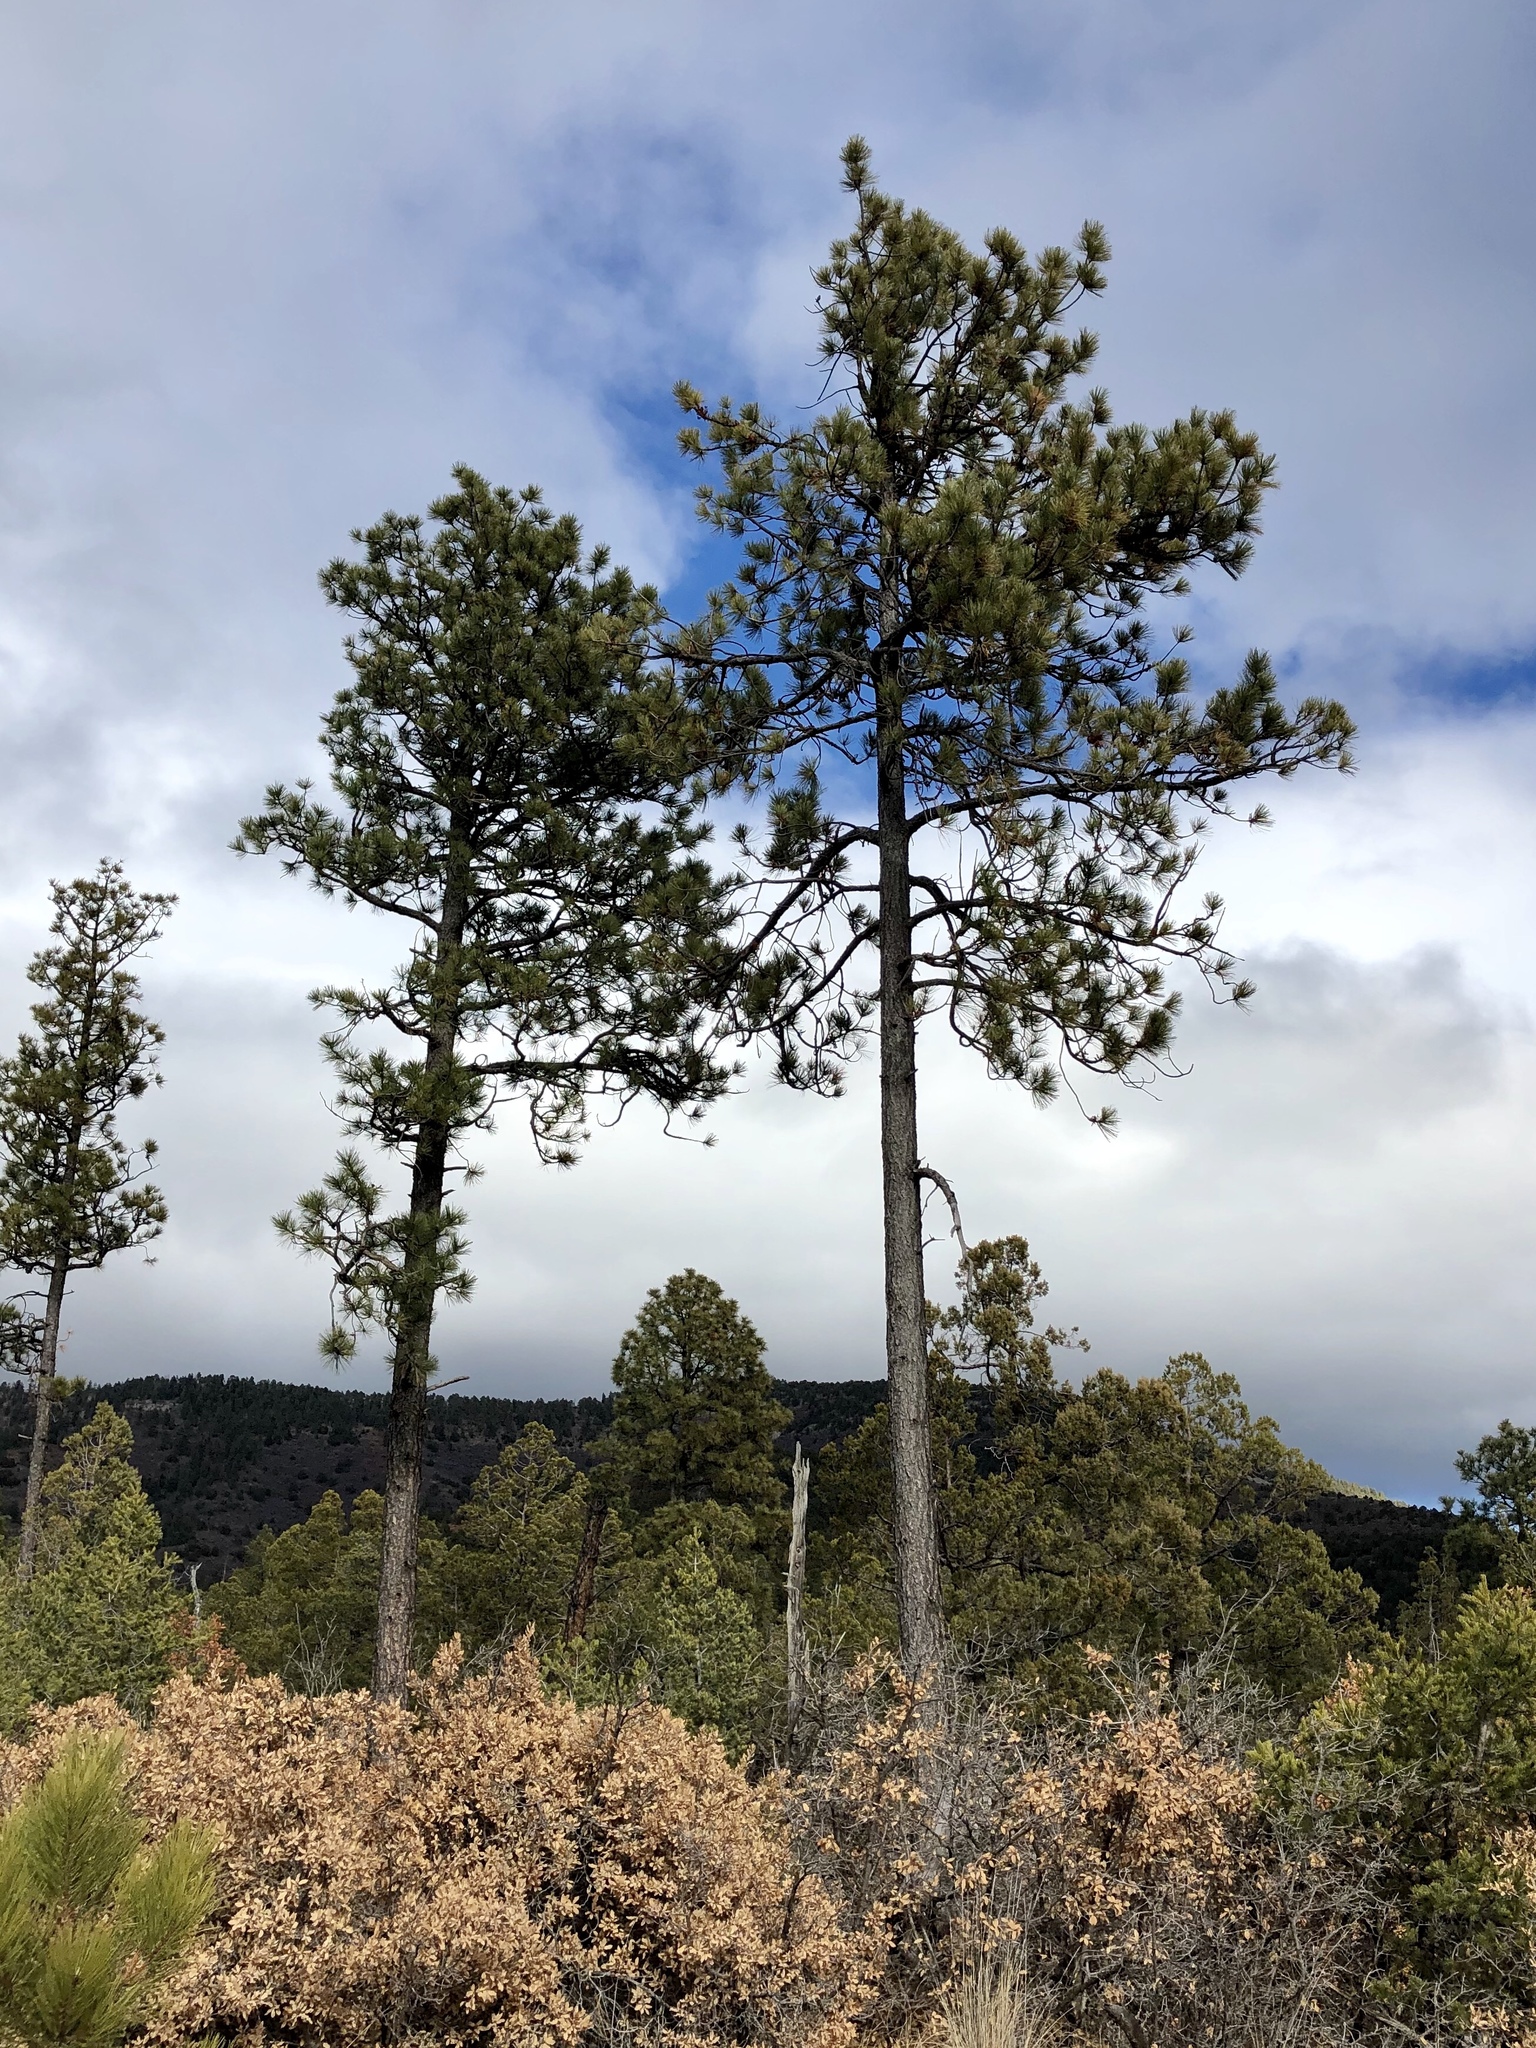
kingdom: Plantae
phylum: Tracheophyta
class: Pinopsida
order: Pinales
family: Pinaceae
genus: Pinus
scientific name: Pinus ponderosa
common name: Western yellow-pine
